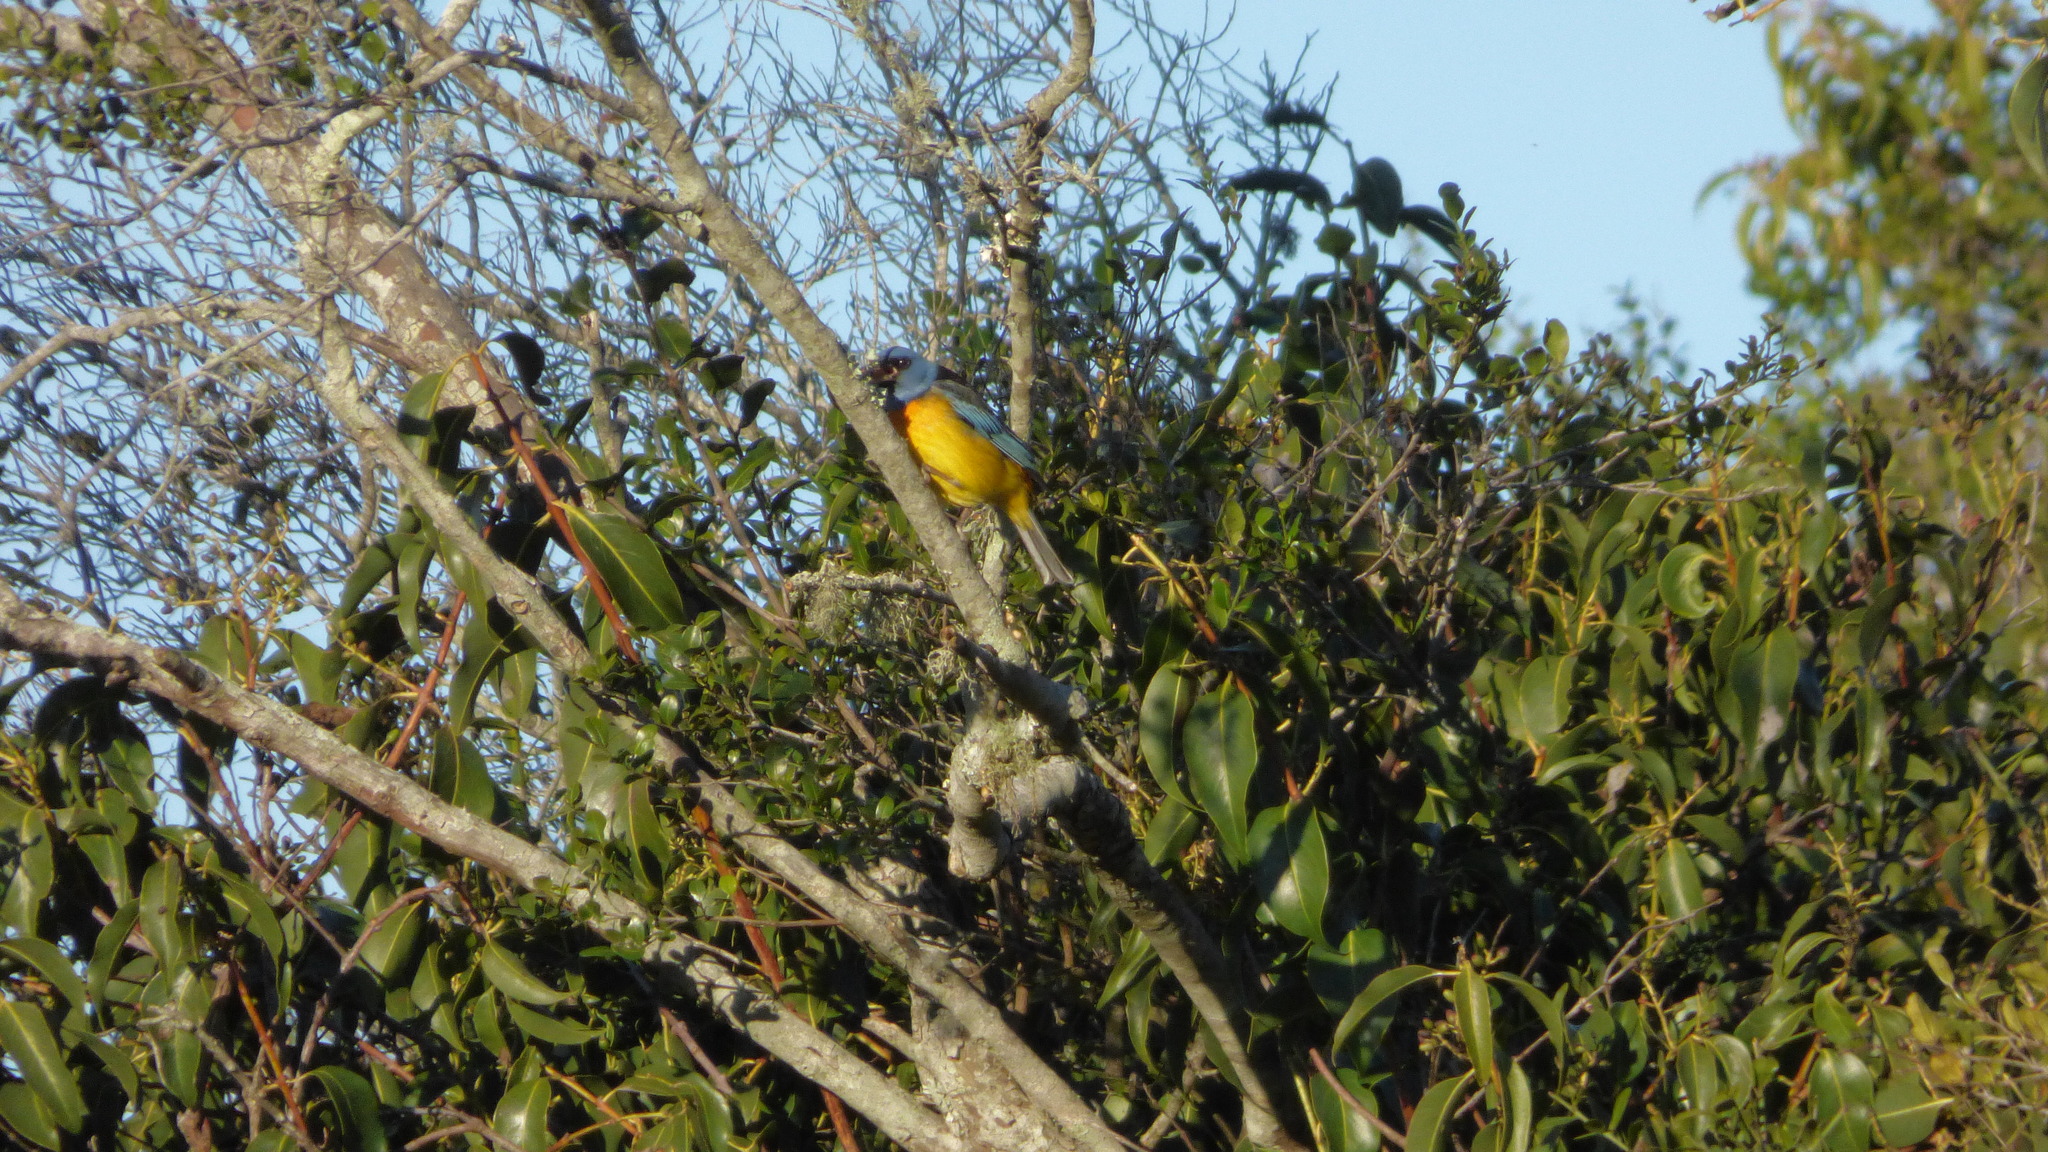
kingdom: Animalia
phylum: Chordata
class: Aves
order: Passeriformes
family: Thraupidae
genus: Rauenia
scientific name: Rauenia bonariensis
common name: Blue-and-yellow tanager
